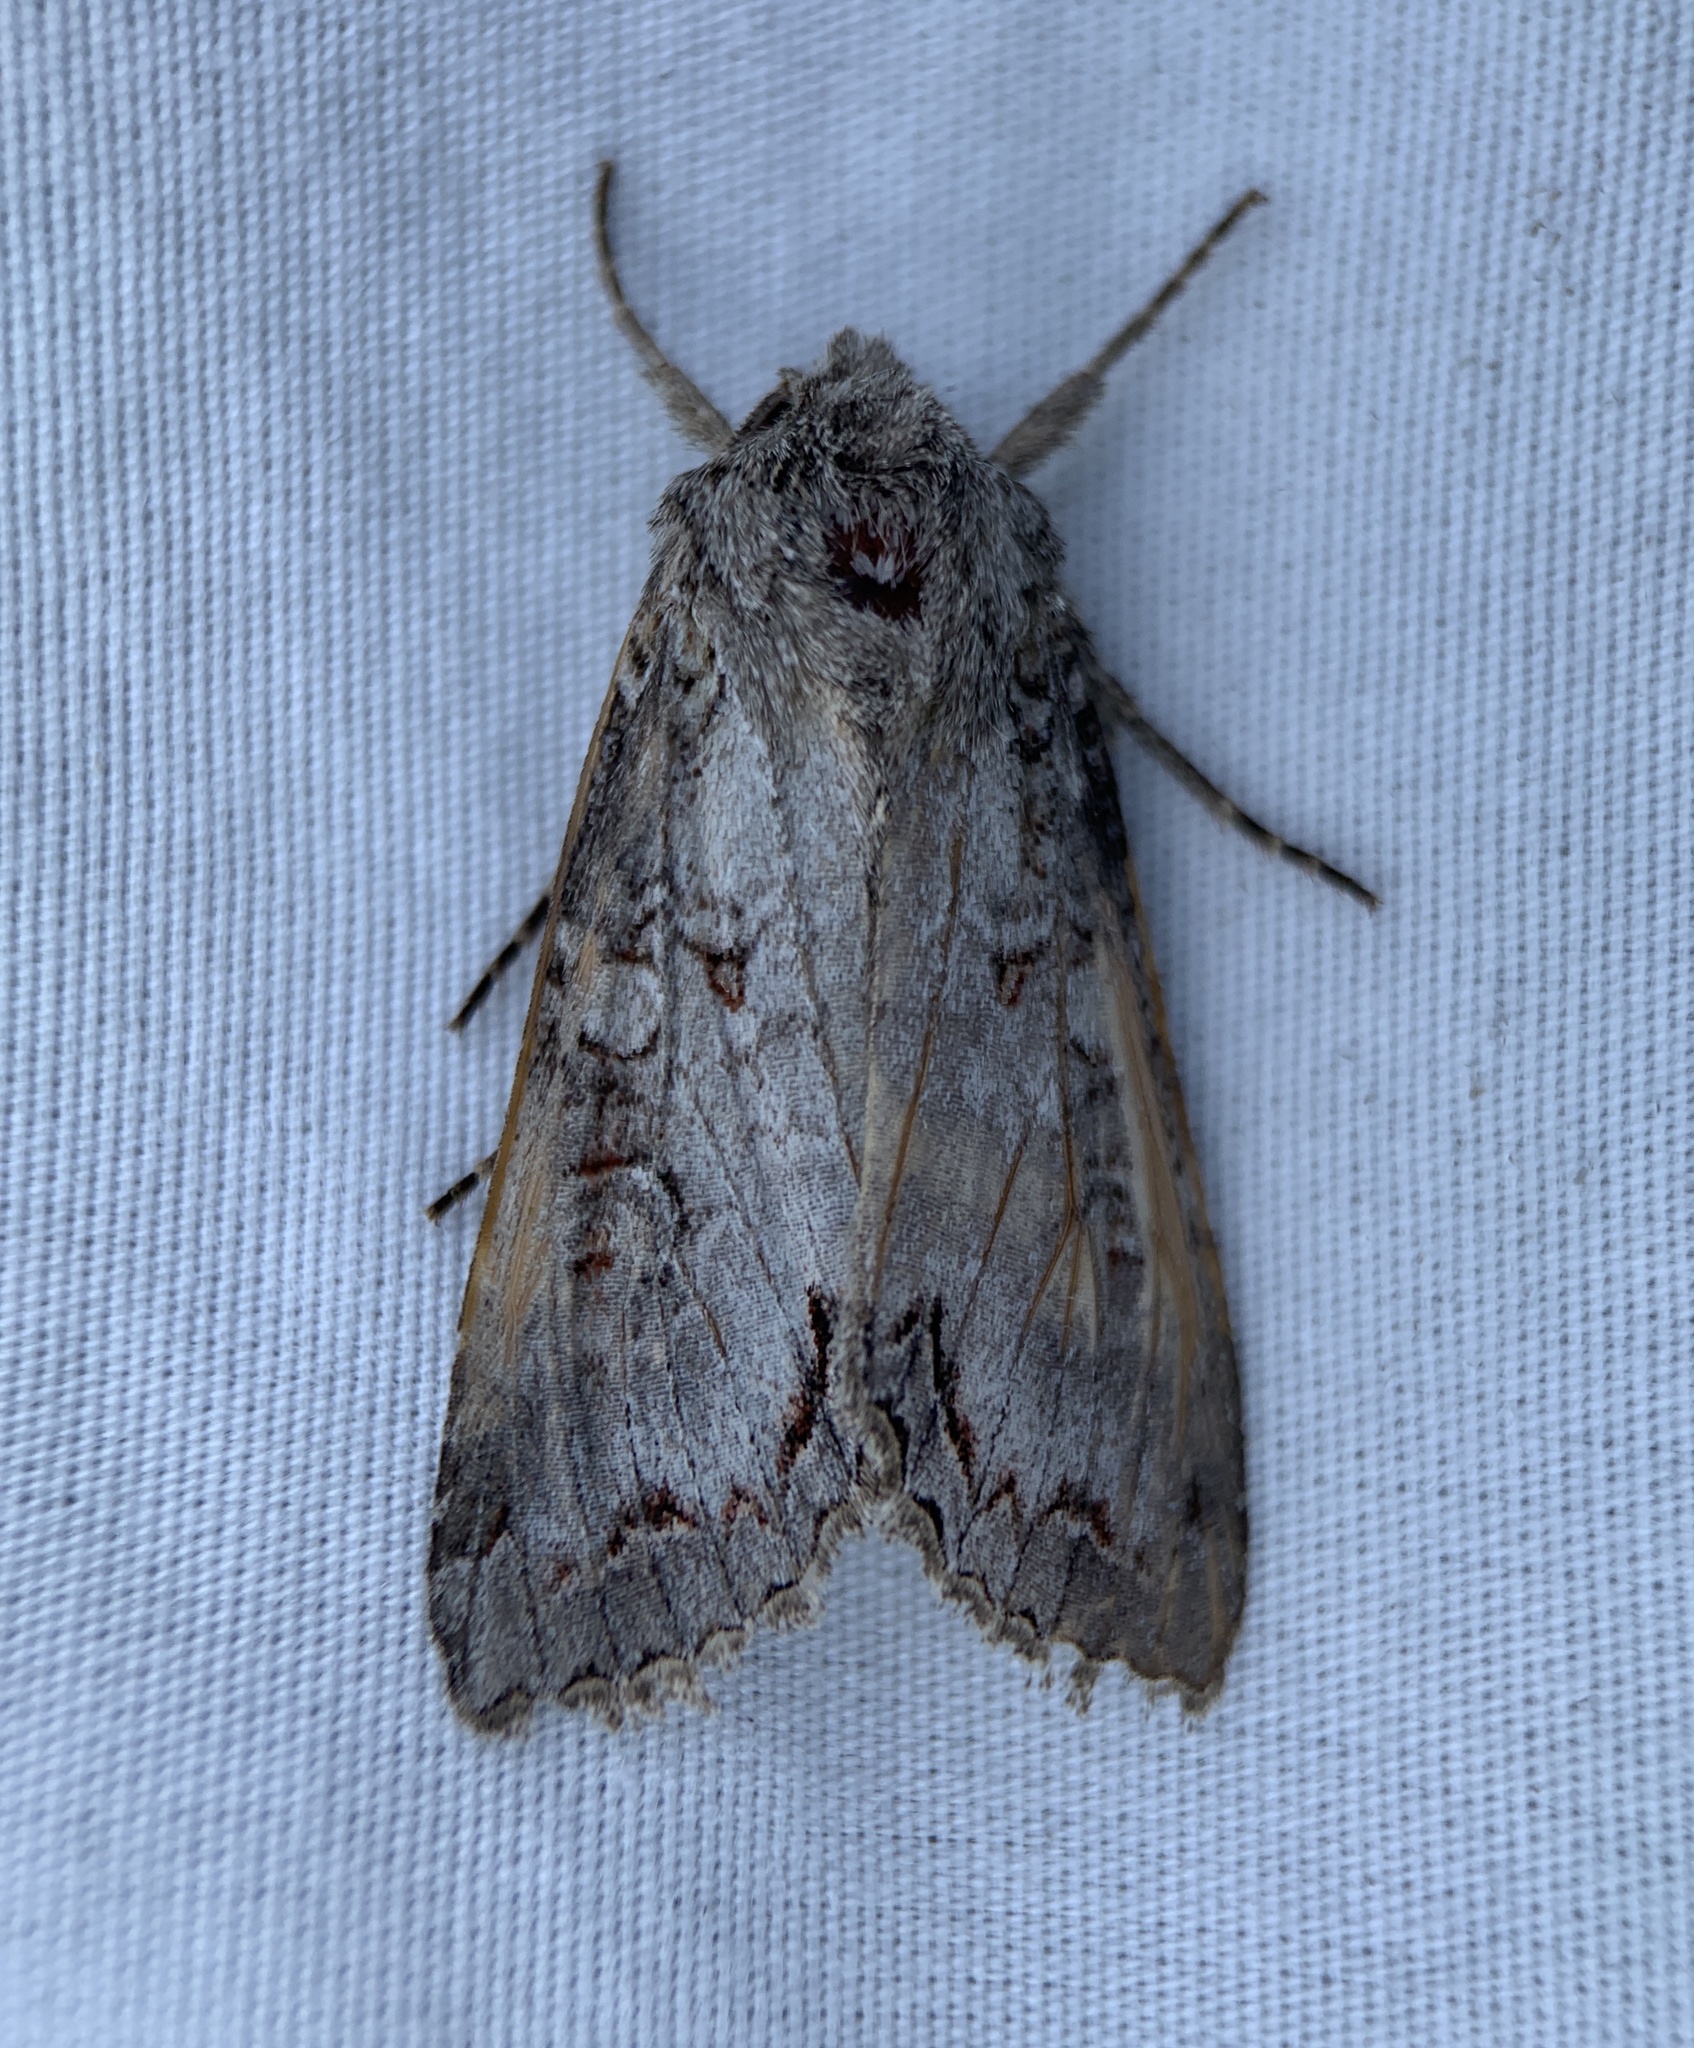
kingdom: Animalia
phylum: Arthropoda
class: Insecta
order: Lepidoptera
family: Noctuidae
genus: Polia
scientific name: Polia purpurissata
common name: Purple arches moth
